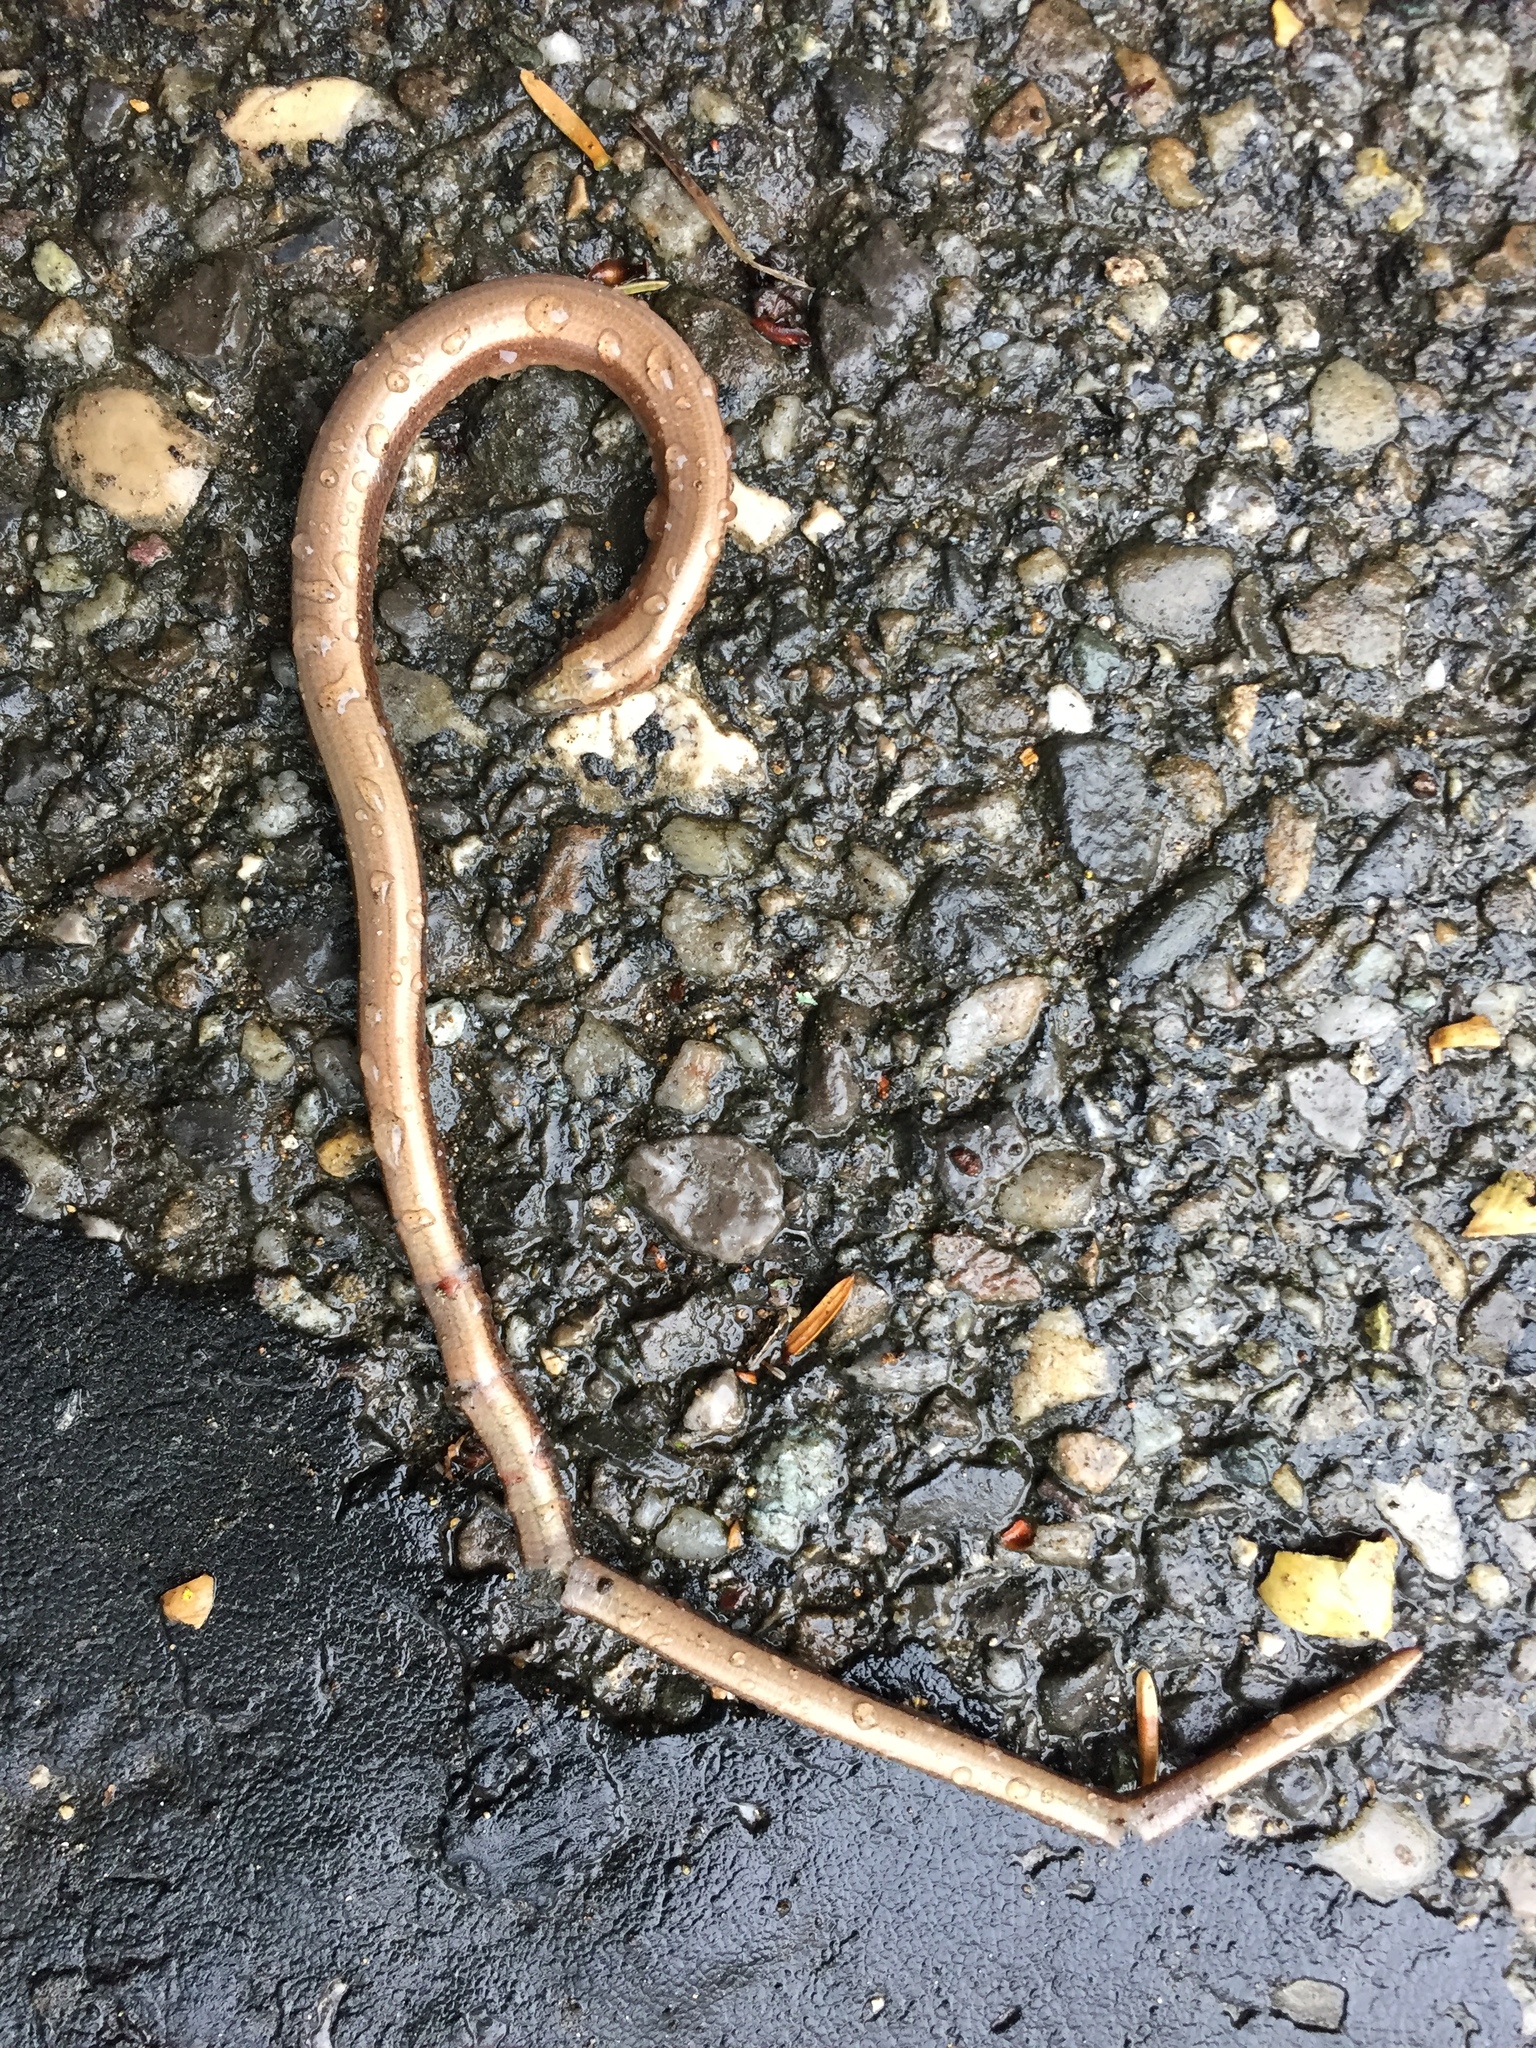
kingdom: Animalia
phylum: Chordata
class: Squamata
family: Anguidae
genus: Anguis
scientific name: Anguis fragilis
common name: Slow worm
